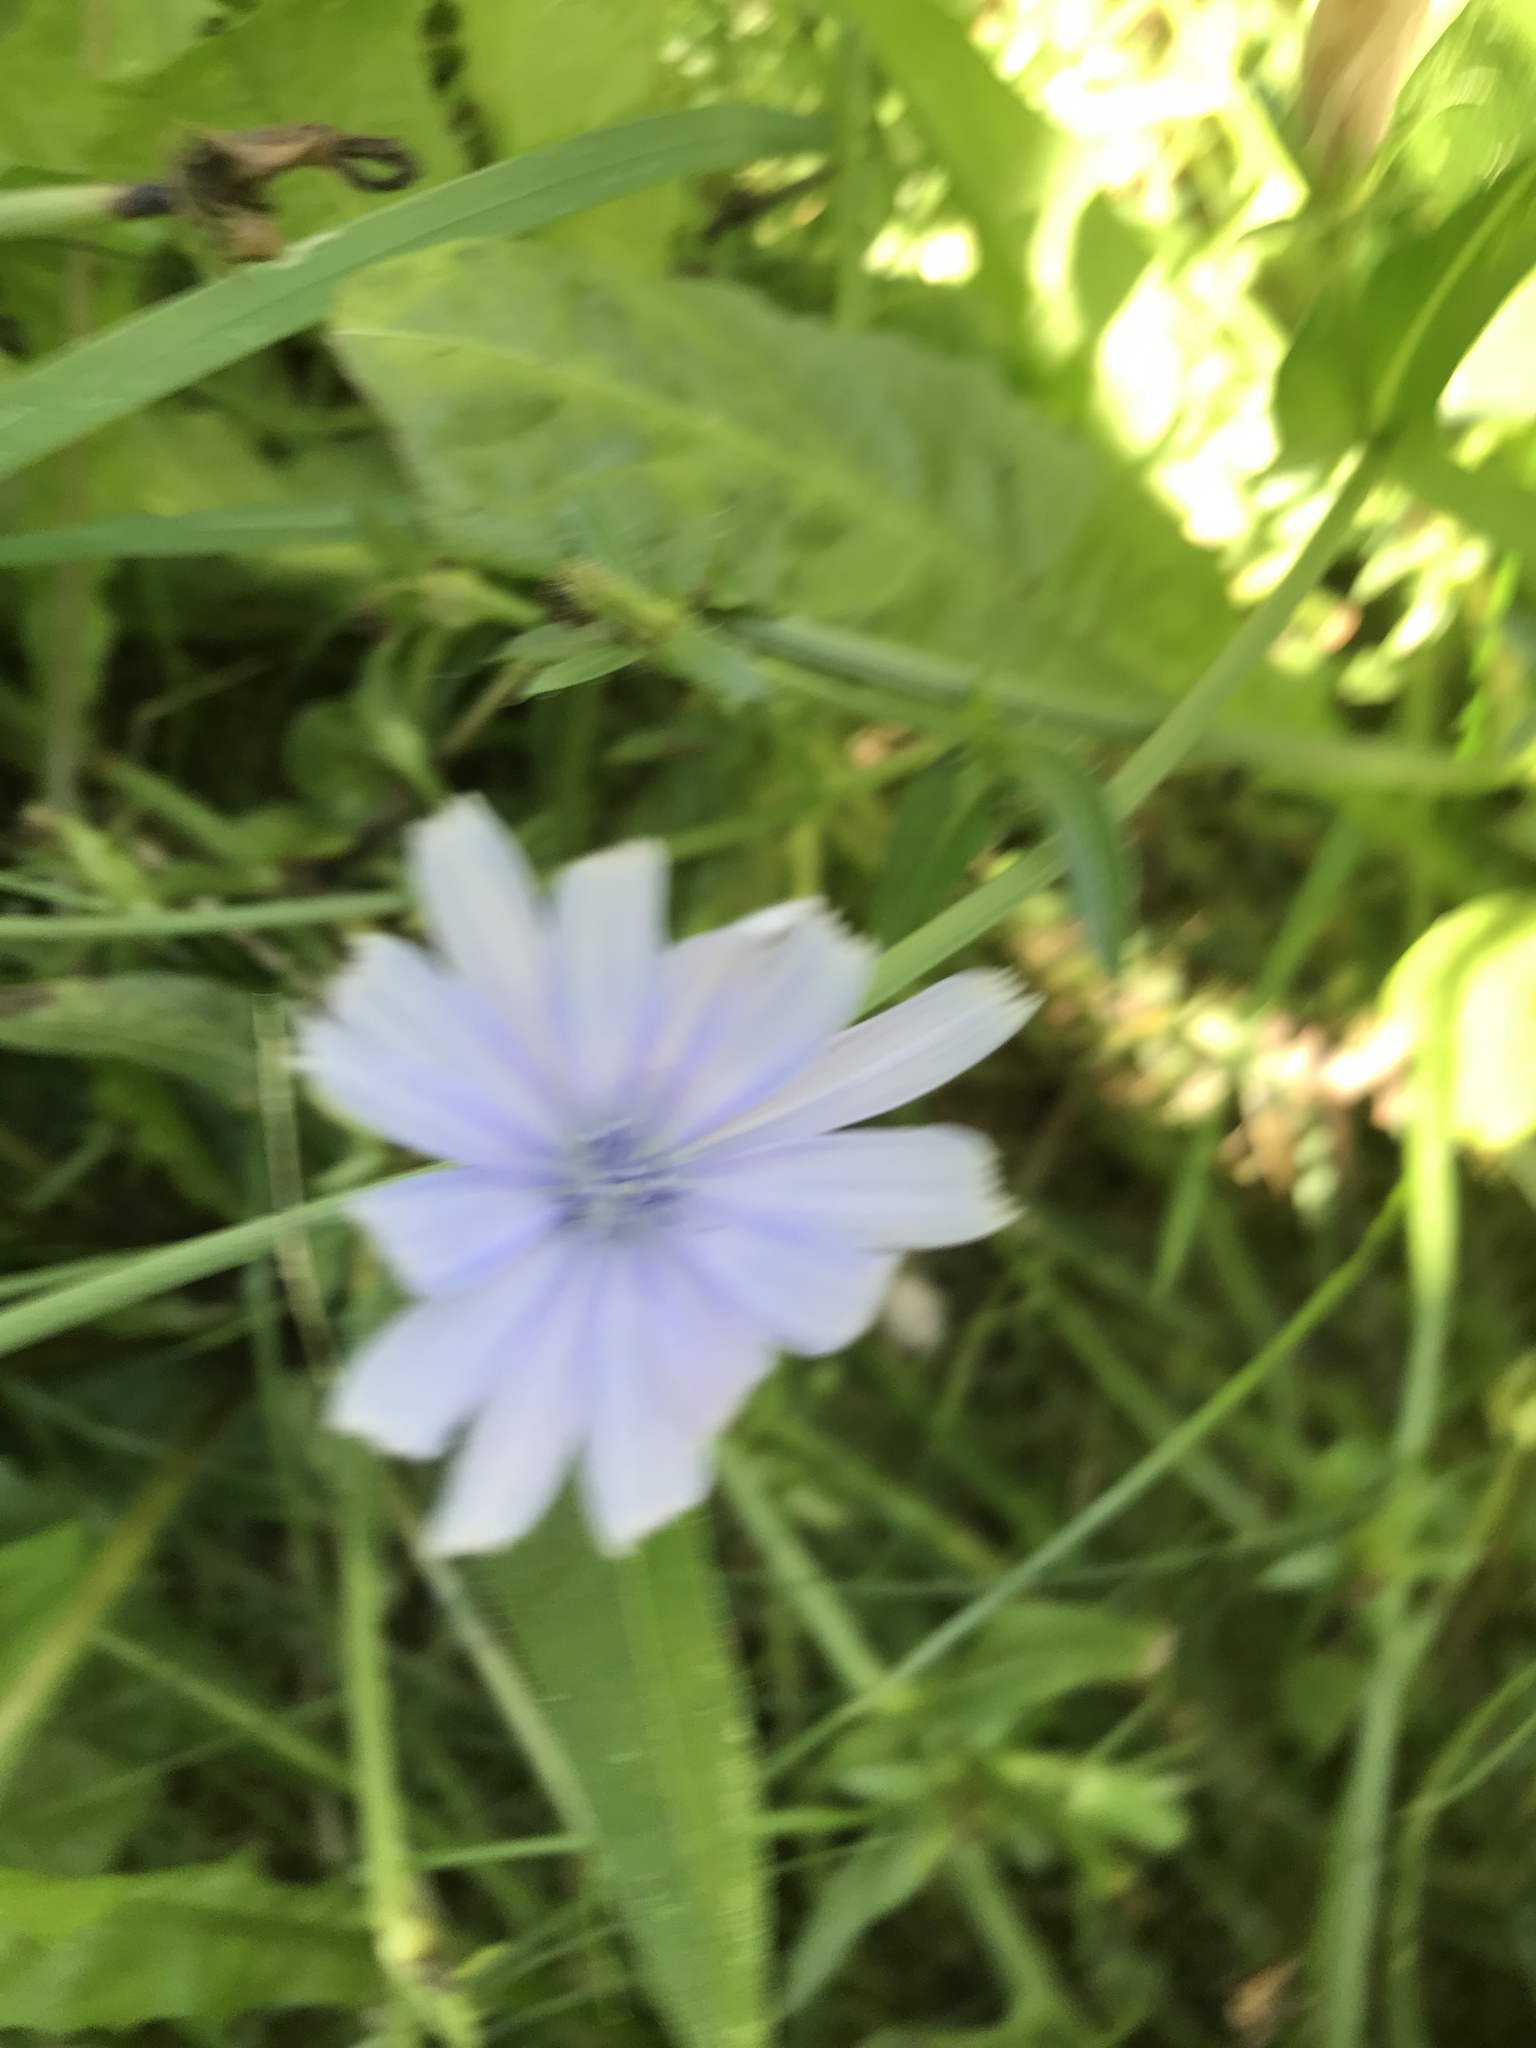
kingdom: Plantae
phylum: Tracheophyta
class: Magnoliopsida
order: Asterales
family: Asteraceae
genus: Cichorium
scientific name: Cichorium intybus
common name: Chicory
